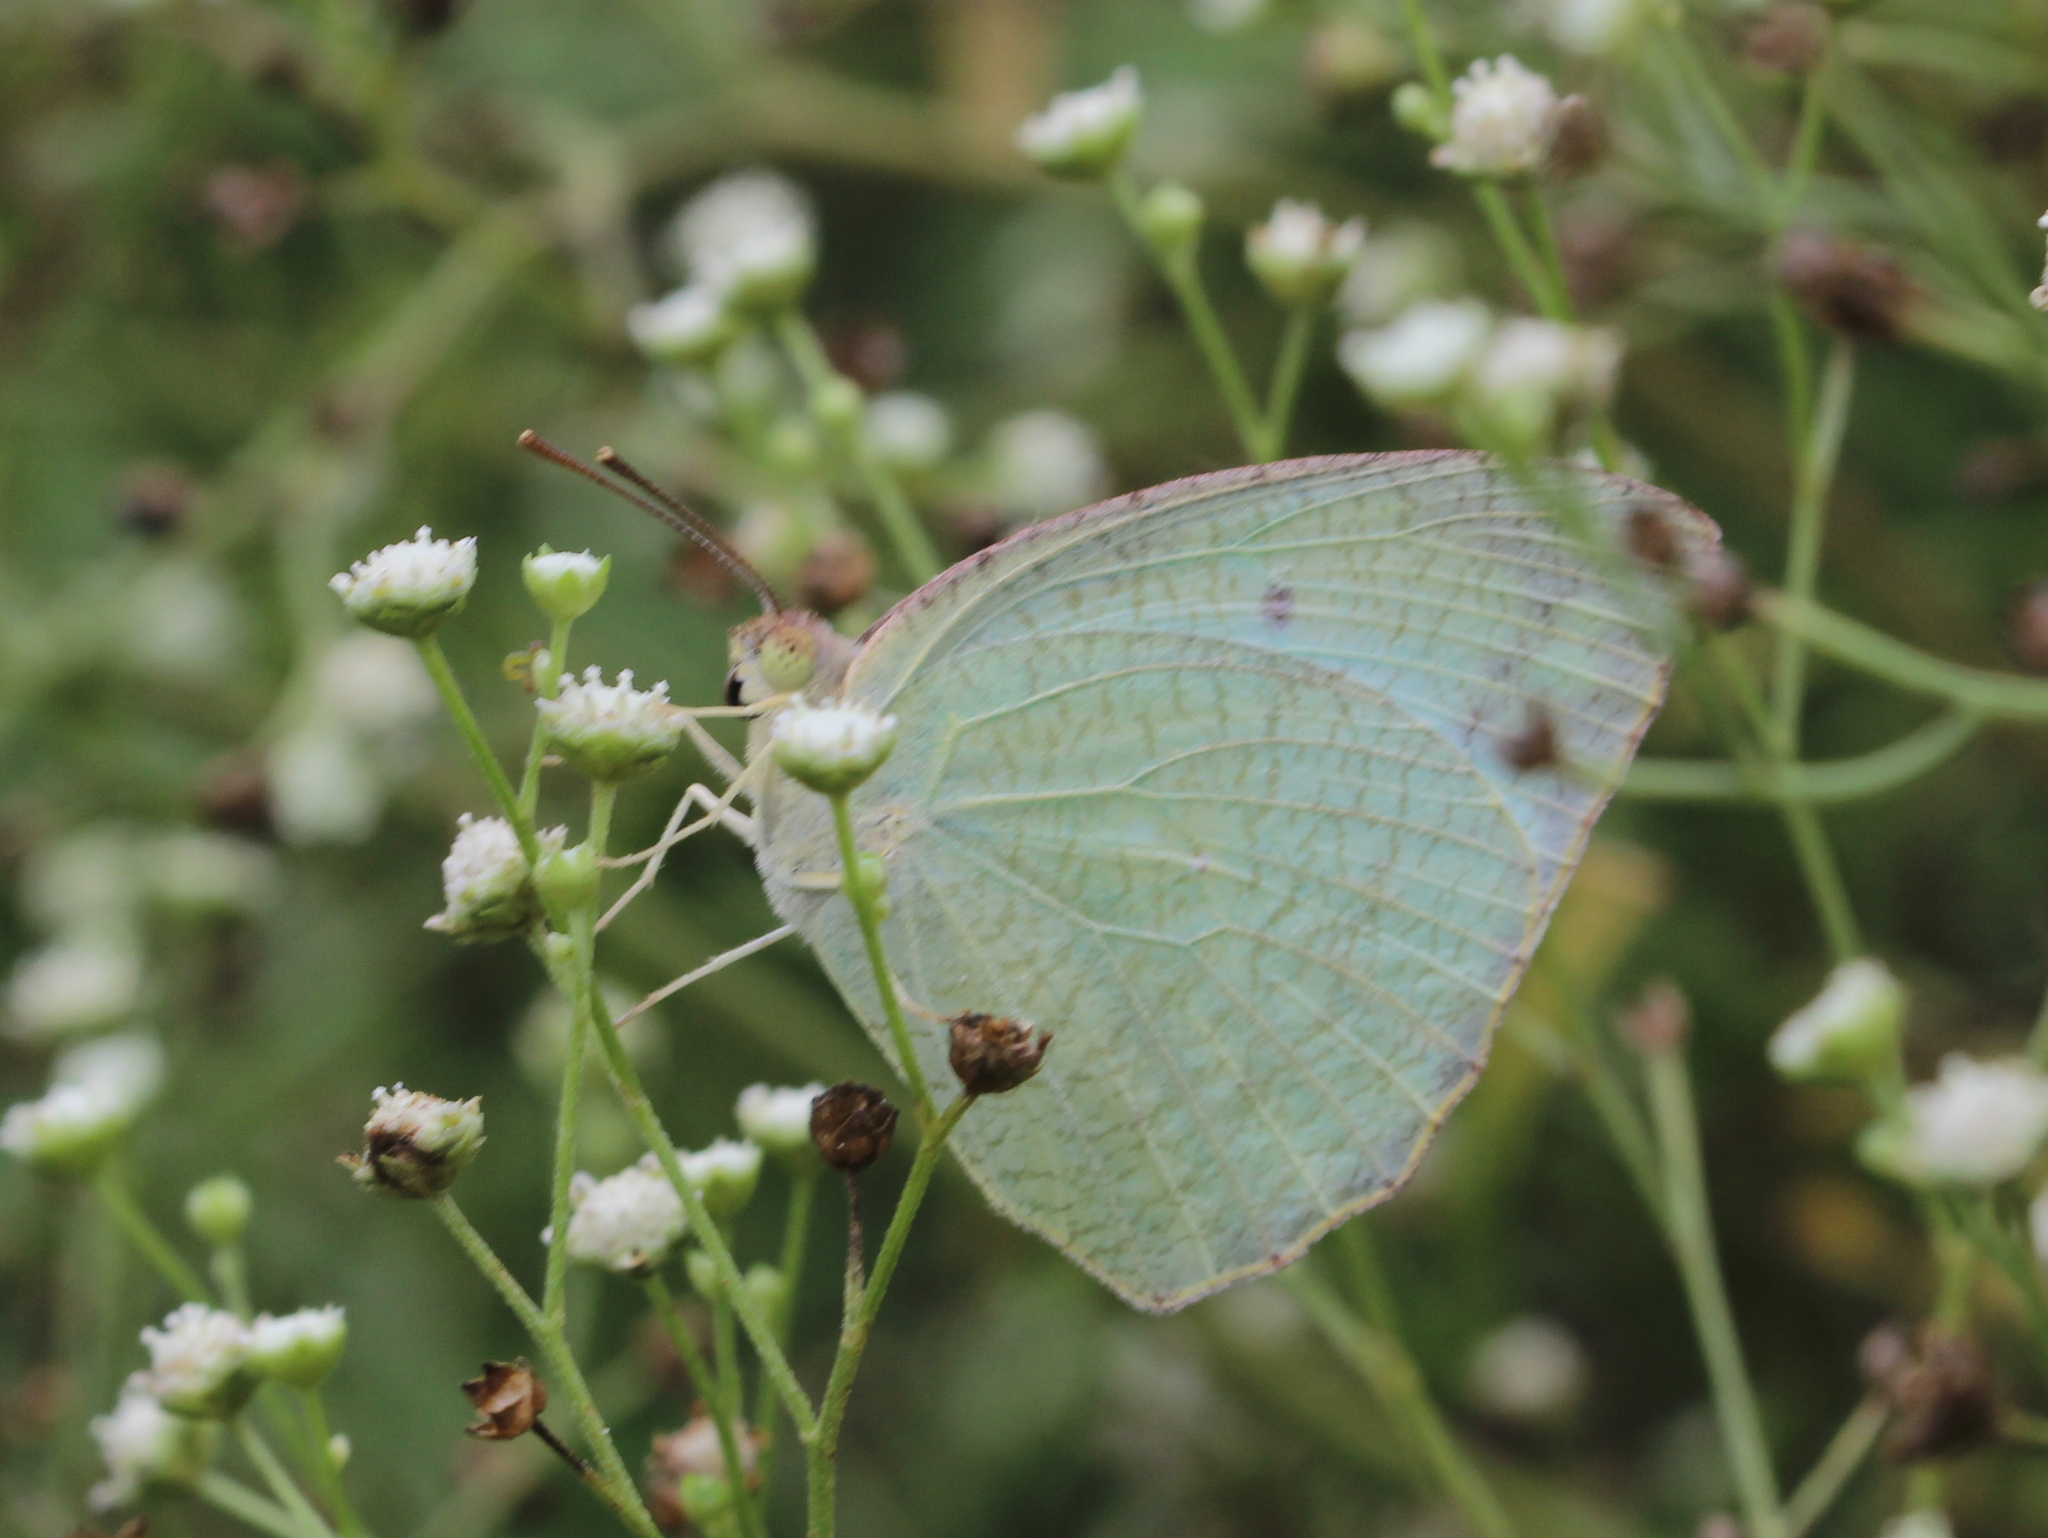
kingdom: Animalia
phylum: Arthropoda
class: Insecta
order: Lepidoptera
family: Pieridae
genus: Catopsilia
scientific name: Catopsilia pyranthe
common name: Mottled emigrant
